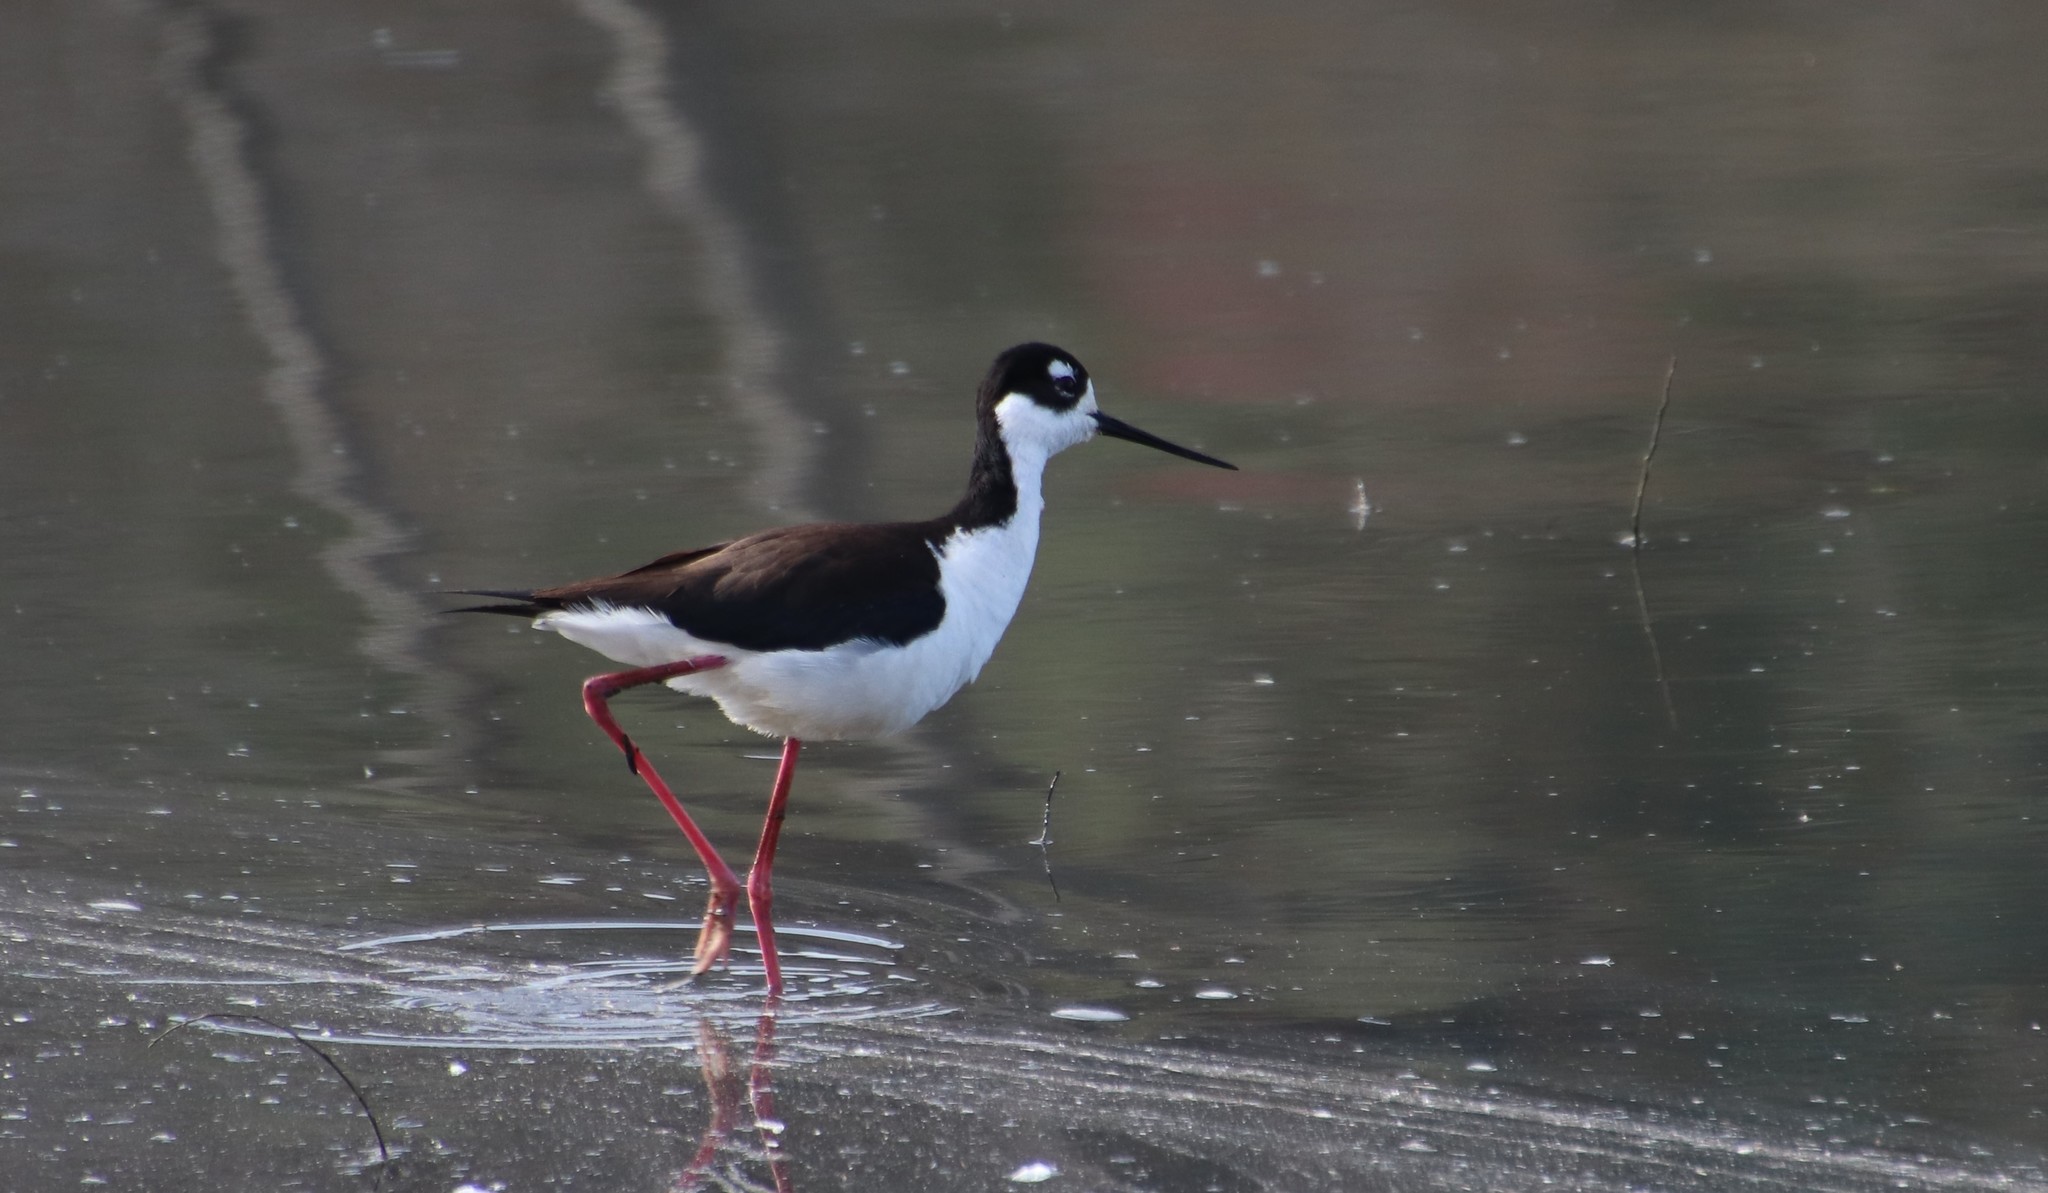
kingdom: Animalia
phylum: Chordata
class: Aves
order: Charadriiformes
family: Recurvirostridae
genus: Himantopus
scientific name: Himantopus mexicanus
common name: Black-necked stilt
